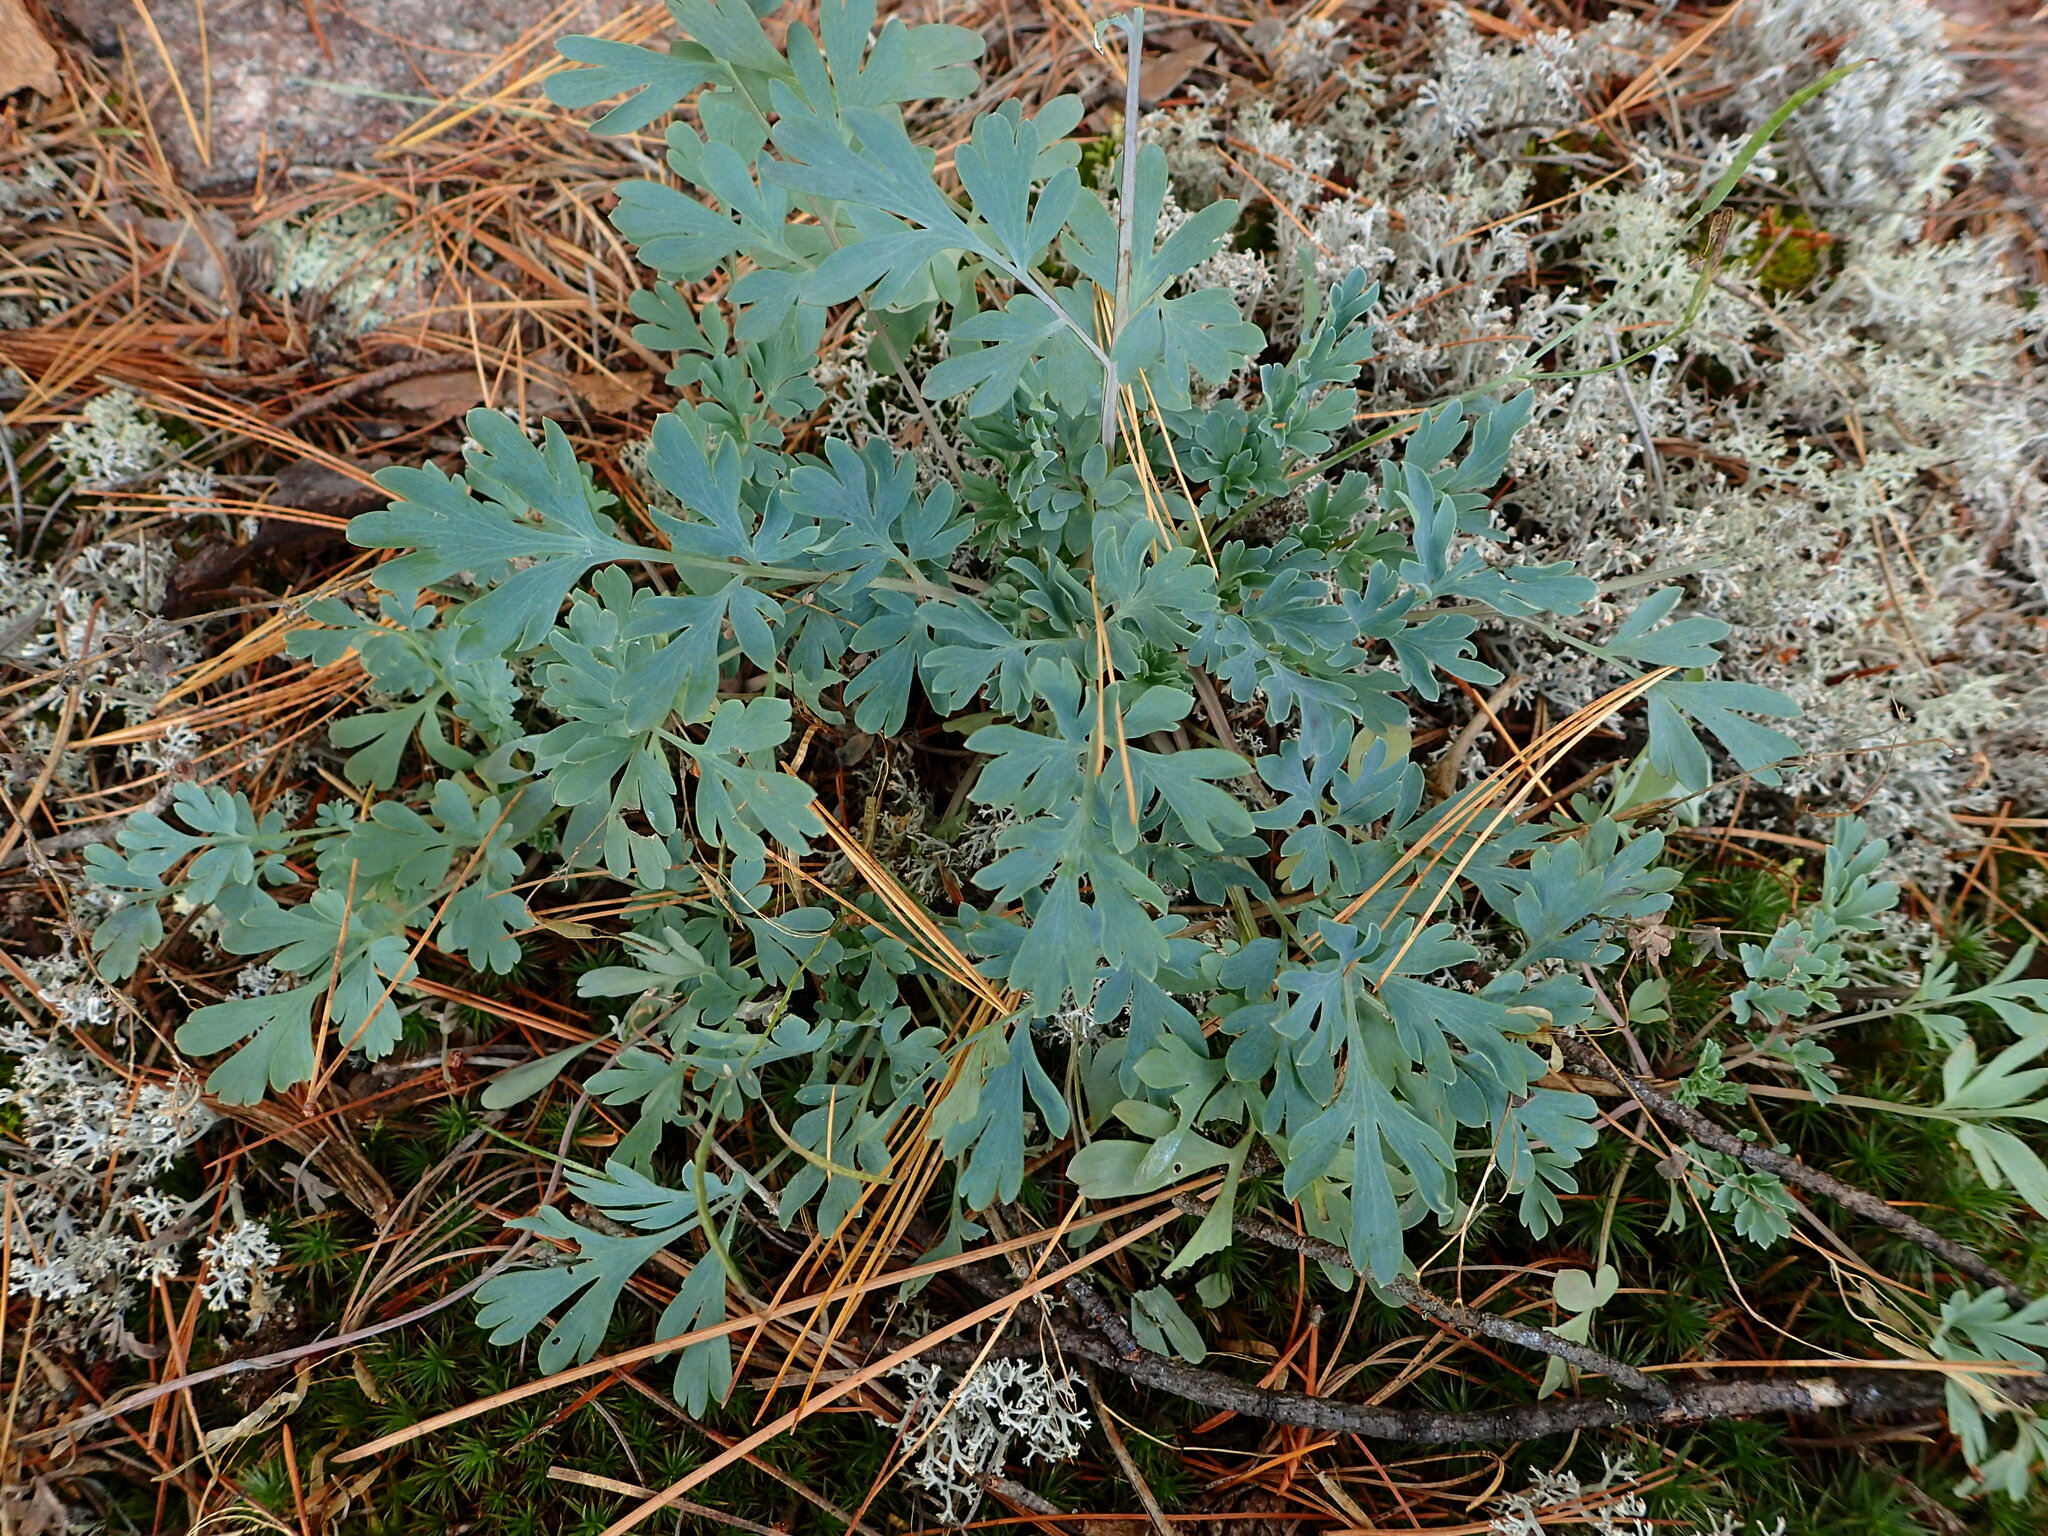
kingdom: Plantae
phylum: Tracheophyta
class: Magnoliopsida
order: Ranunculales
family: Papaveraceae
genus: Capnoides
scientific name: Capnoides sempervirens
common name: Rock harlequin
